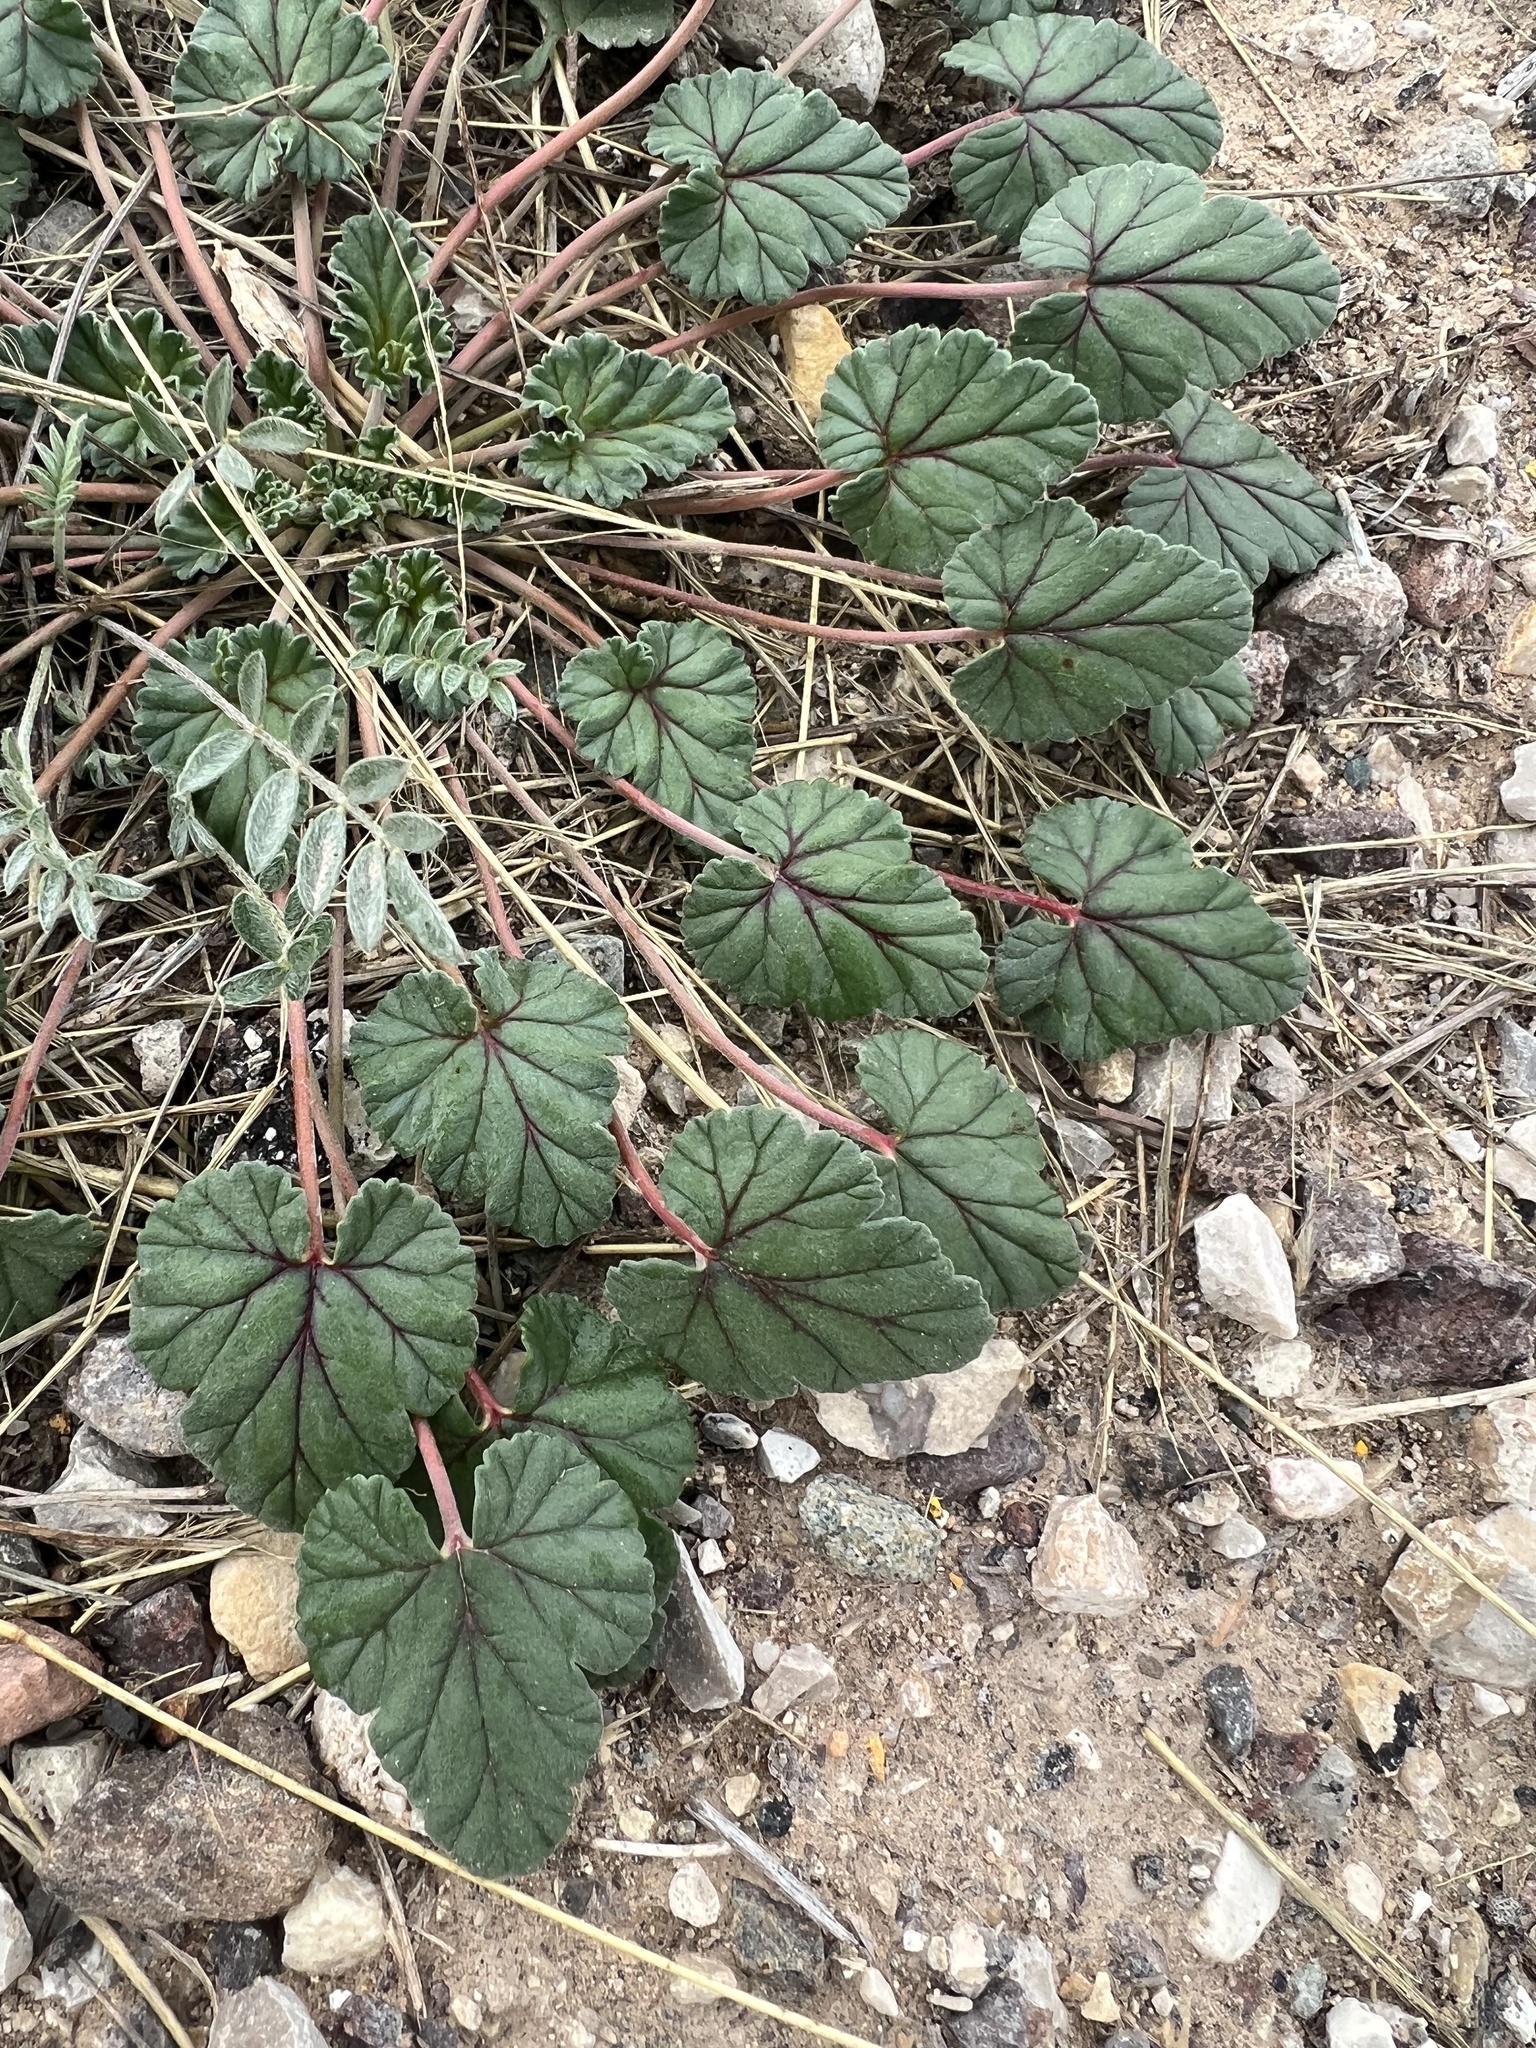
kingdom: Plantae
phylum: Tracheophyta
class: Magnoliopsida
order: Geraniales
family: Geraniaceae
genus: Erodium
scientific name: Erodium texanum
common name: Texas stork's-bill
